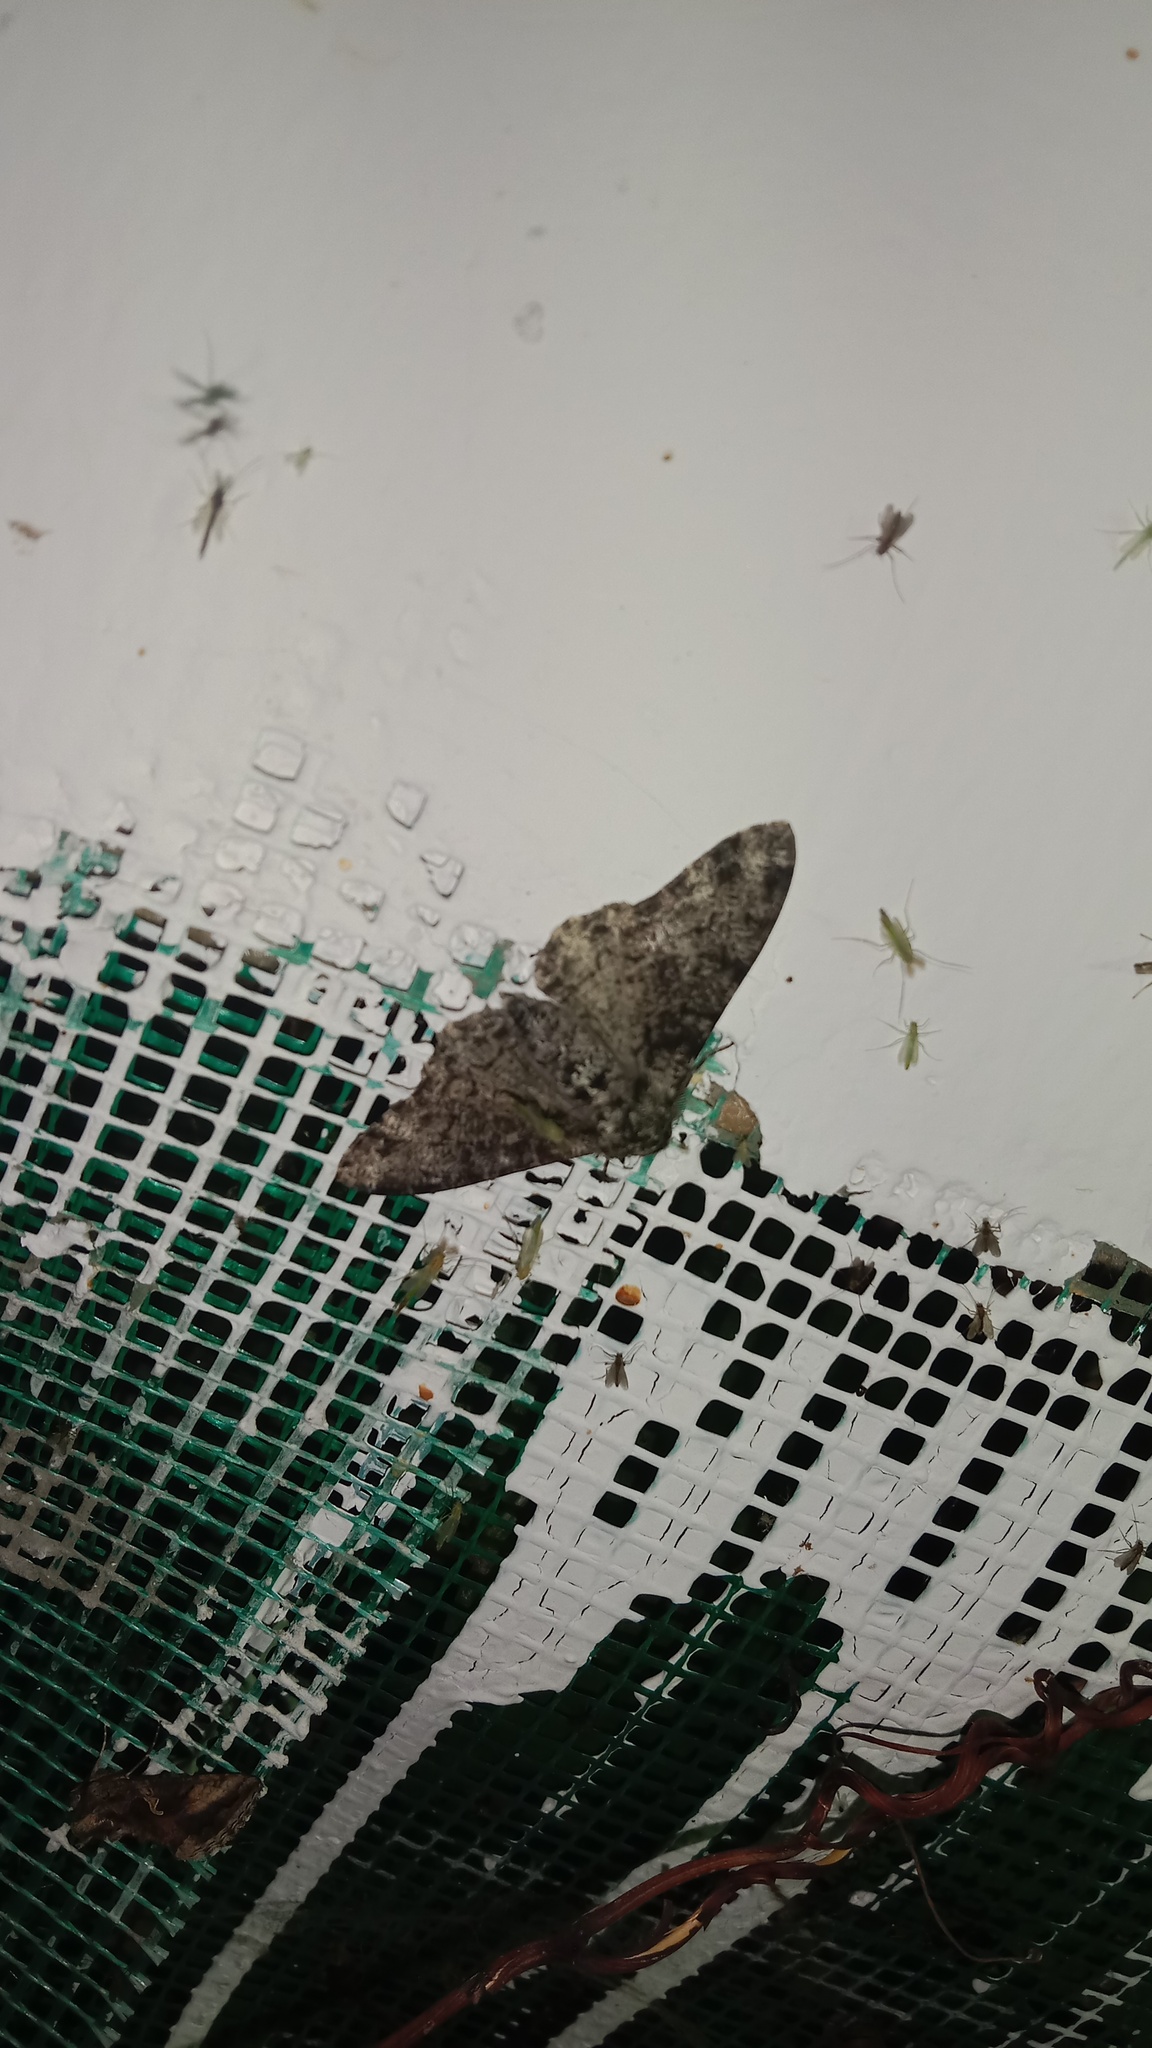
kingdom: Animalia
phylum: Arthropoda
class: Insecta
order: Lepidoptera
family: Geometridae
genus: Biston
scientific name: Biston betularia
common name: Peppered moth
